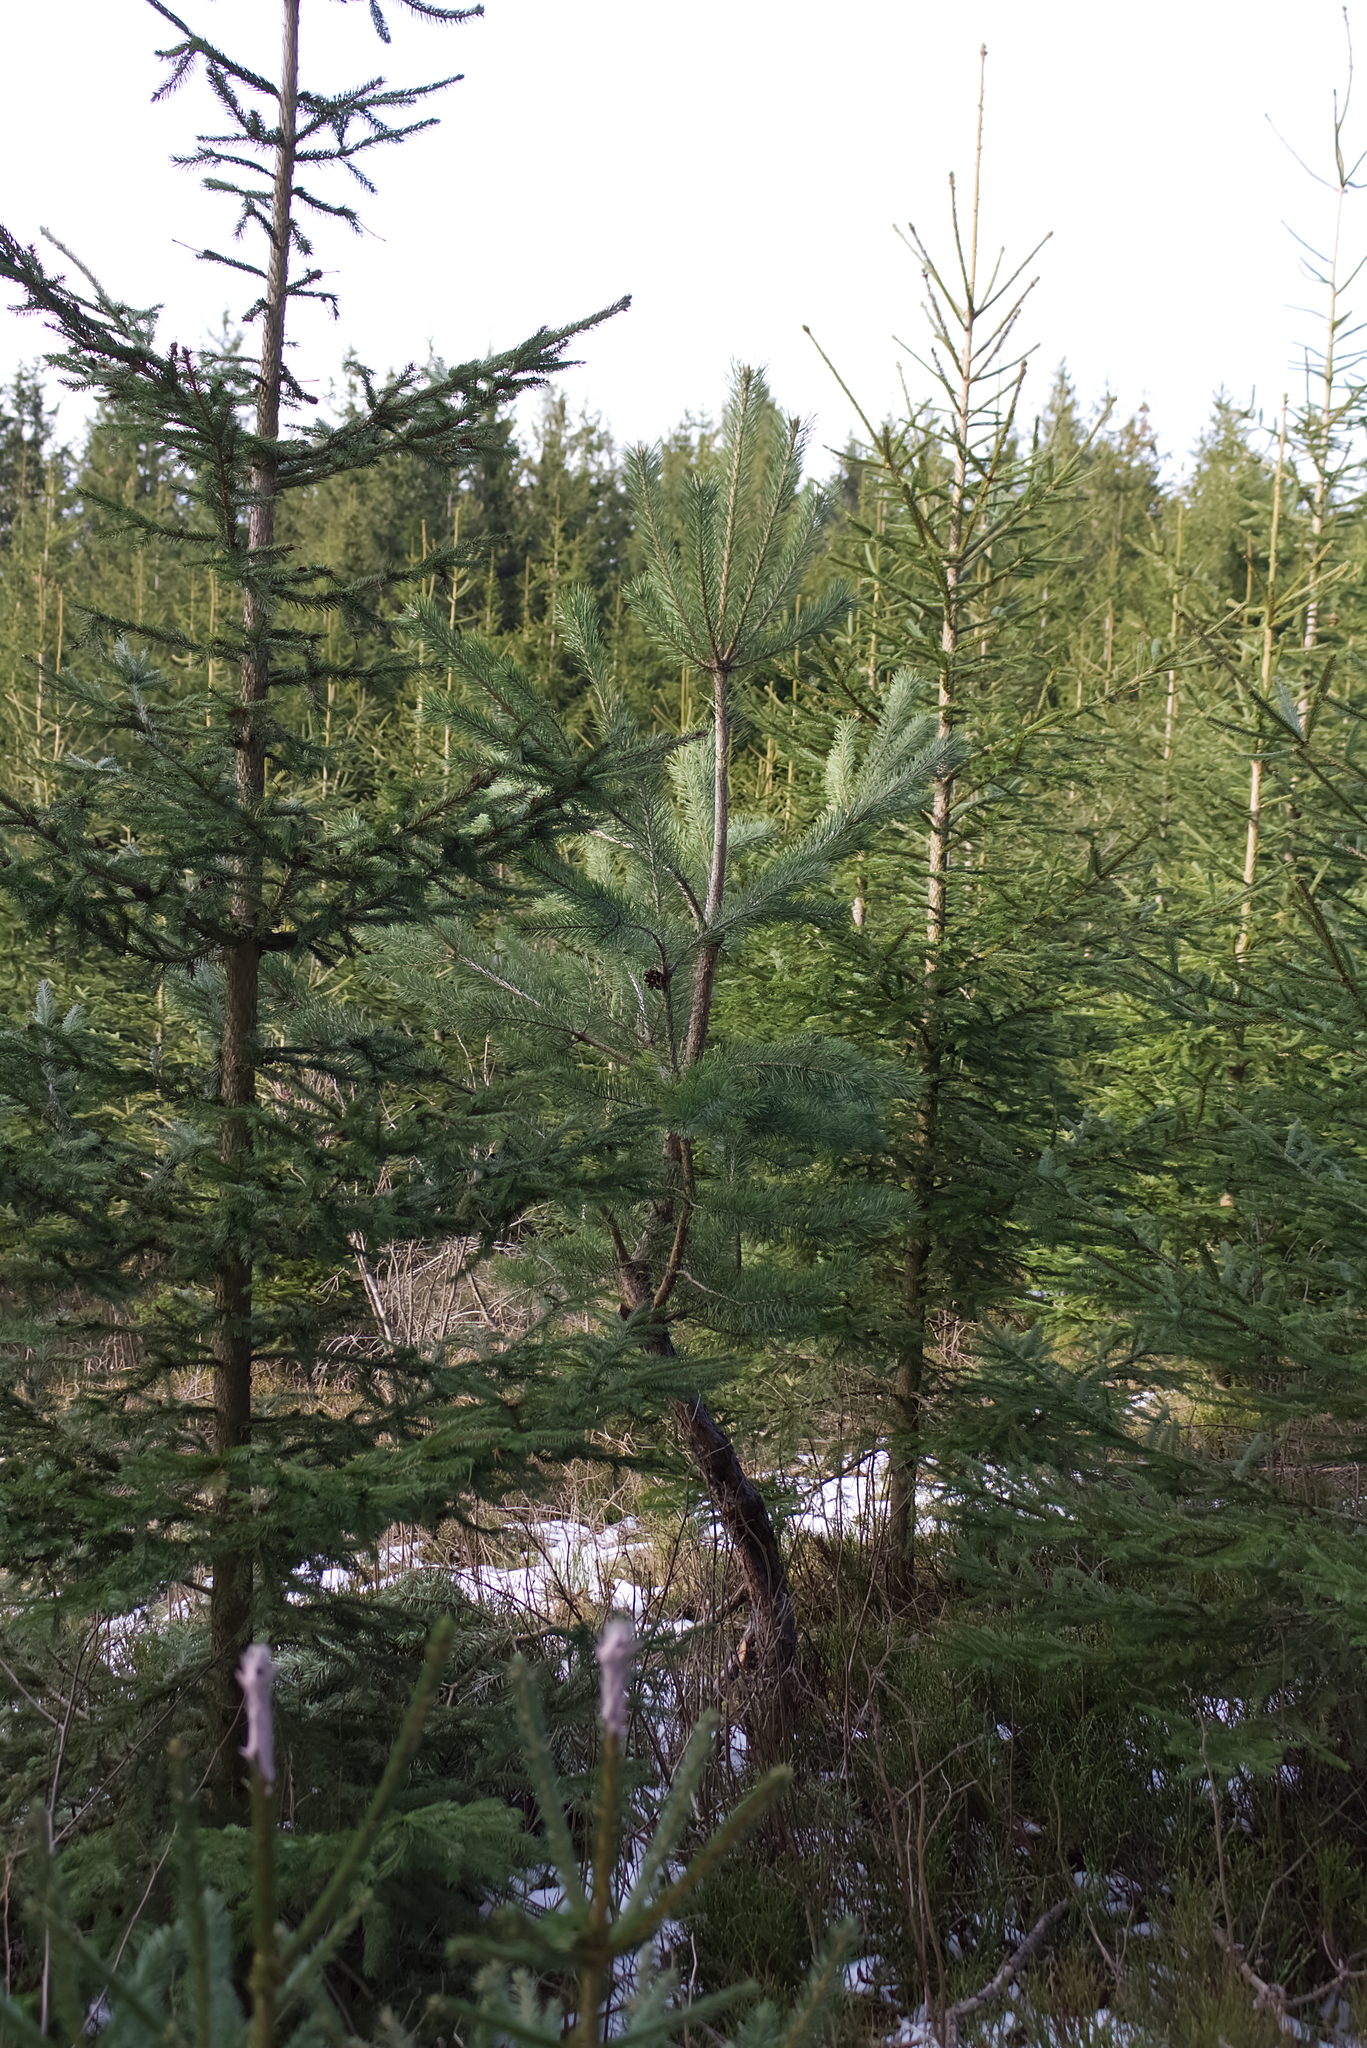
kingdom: Plantae
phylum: Tracheophyta
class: Pinopsida
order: Pinales
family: Pinaceae
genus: Pinus
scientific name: Pinus sylvestris
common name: Scots pine
